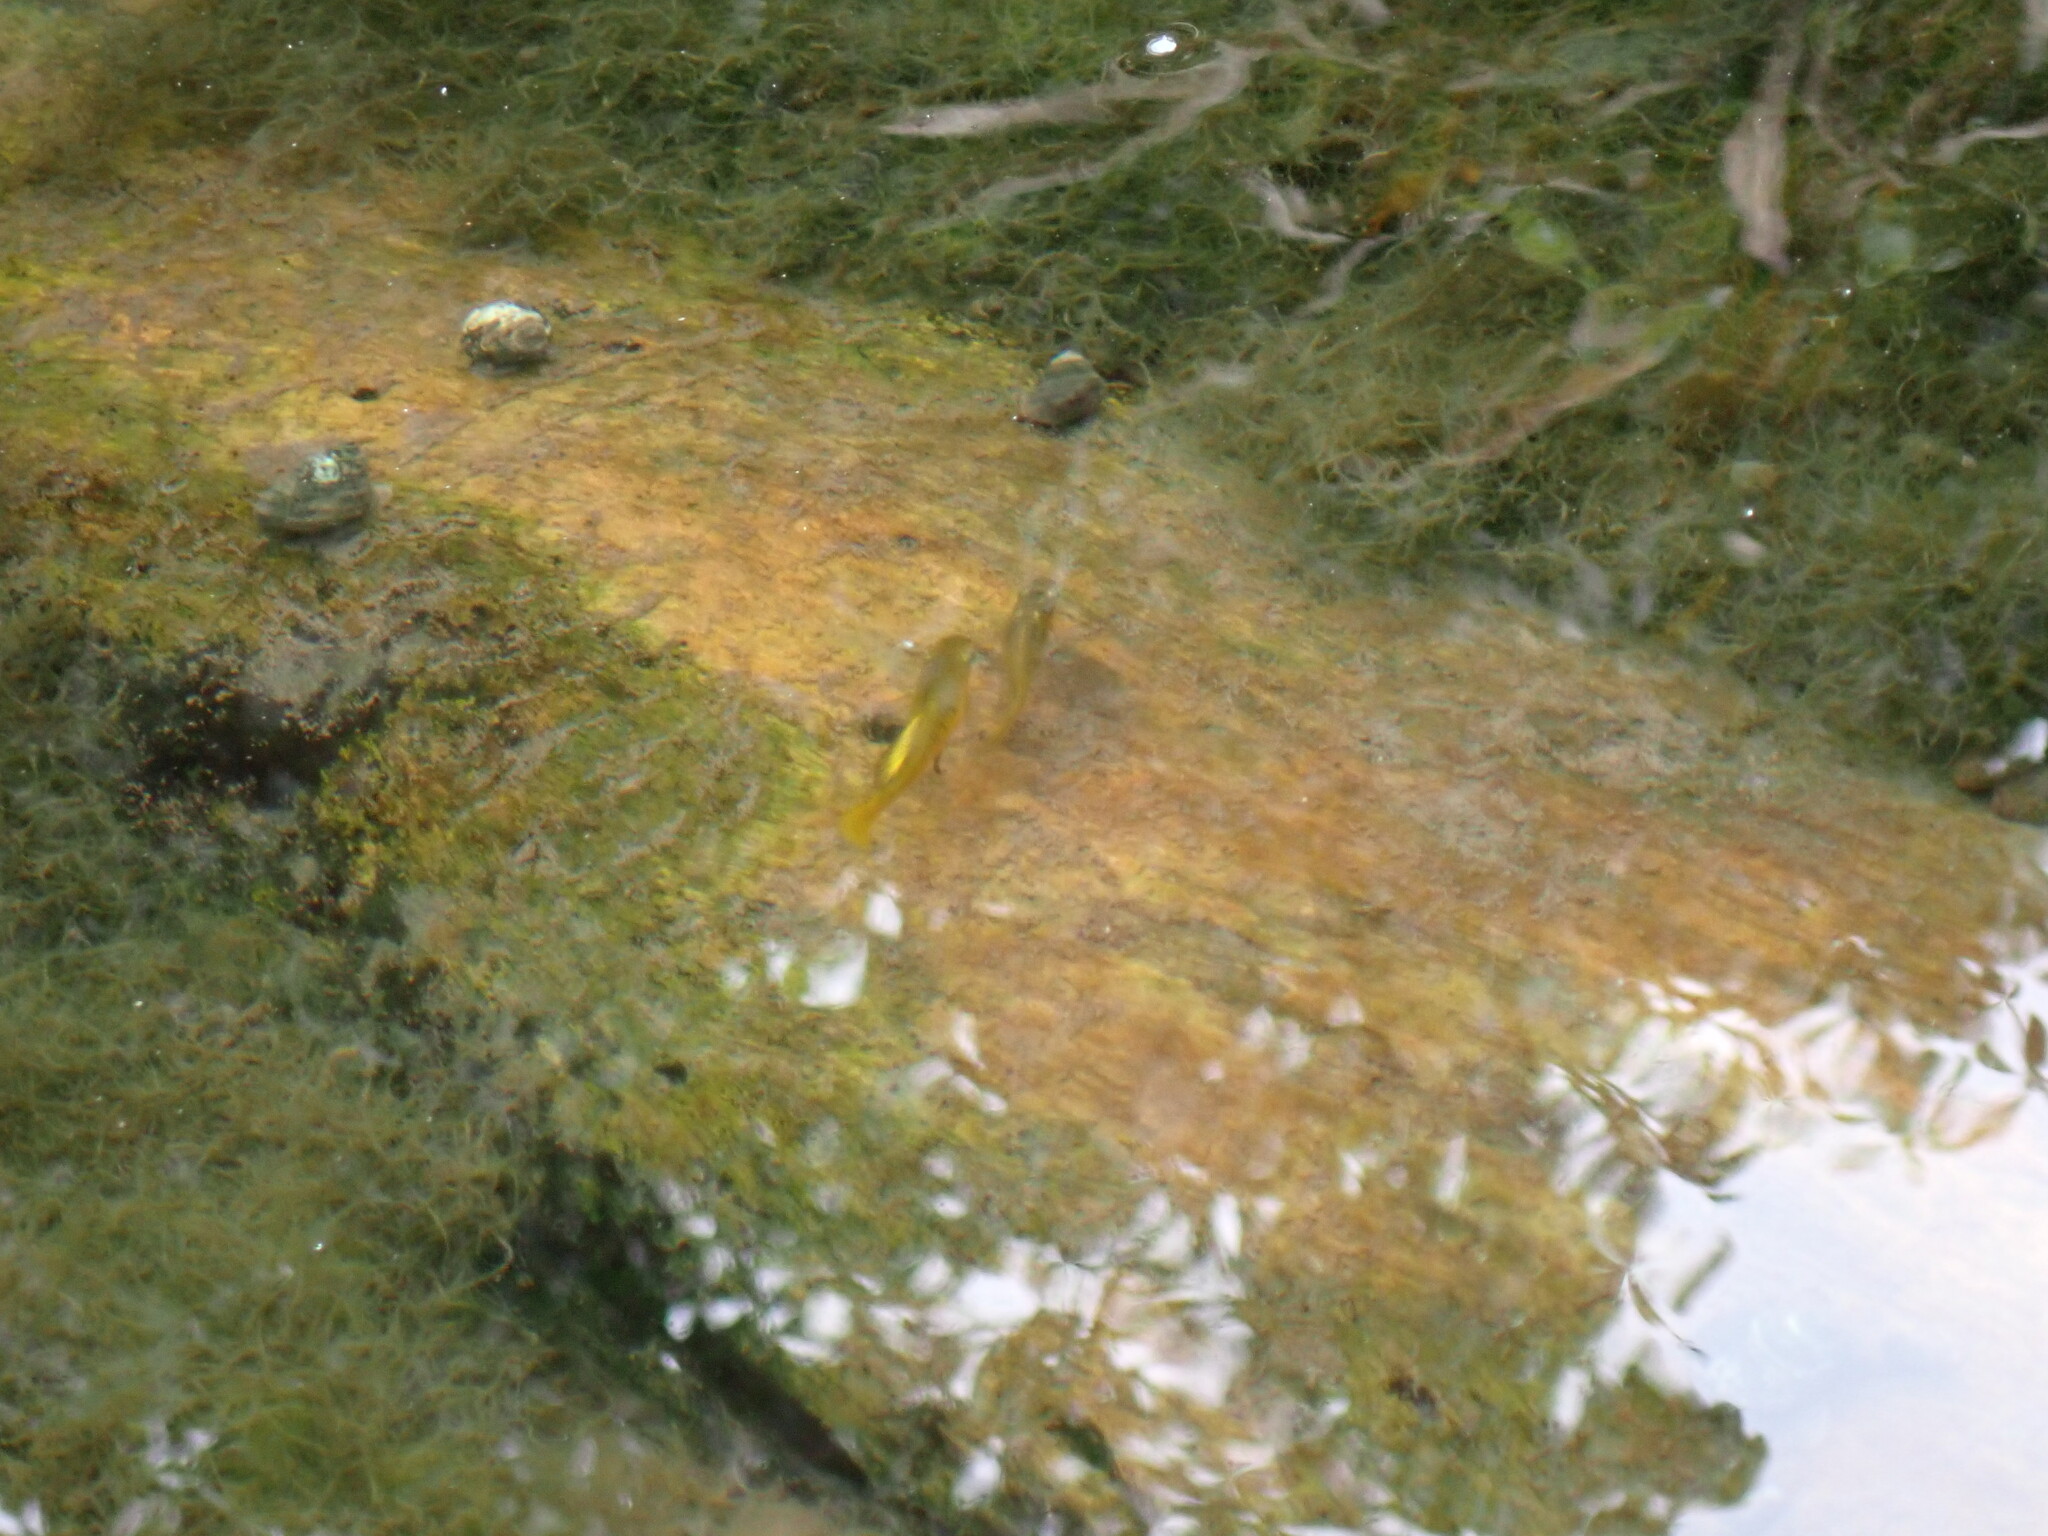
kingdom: Animalia
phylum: Chordata
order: Cyprinodontiformes
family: Poeciliidae
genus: Xiphophorus
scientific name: Xiphophorus variatus
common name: Variable platyfish
